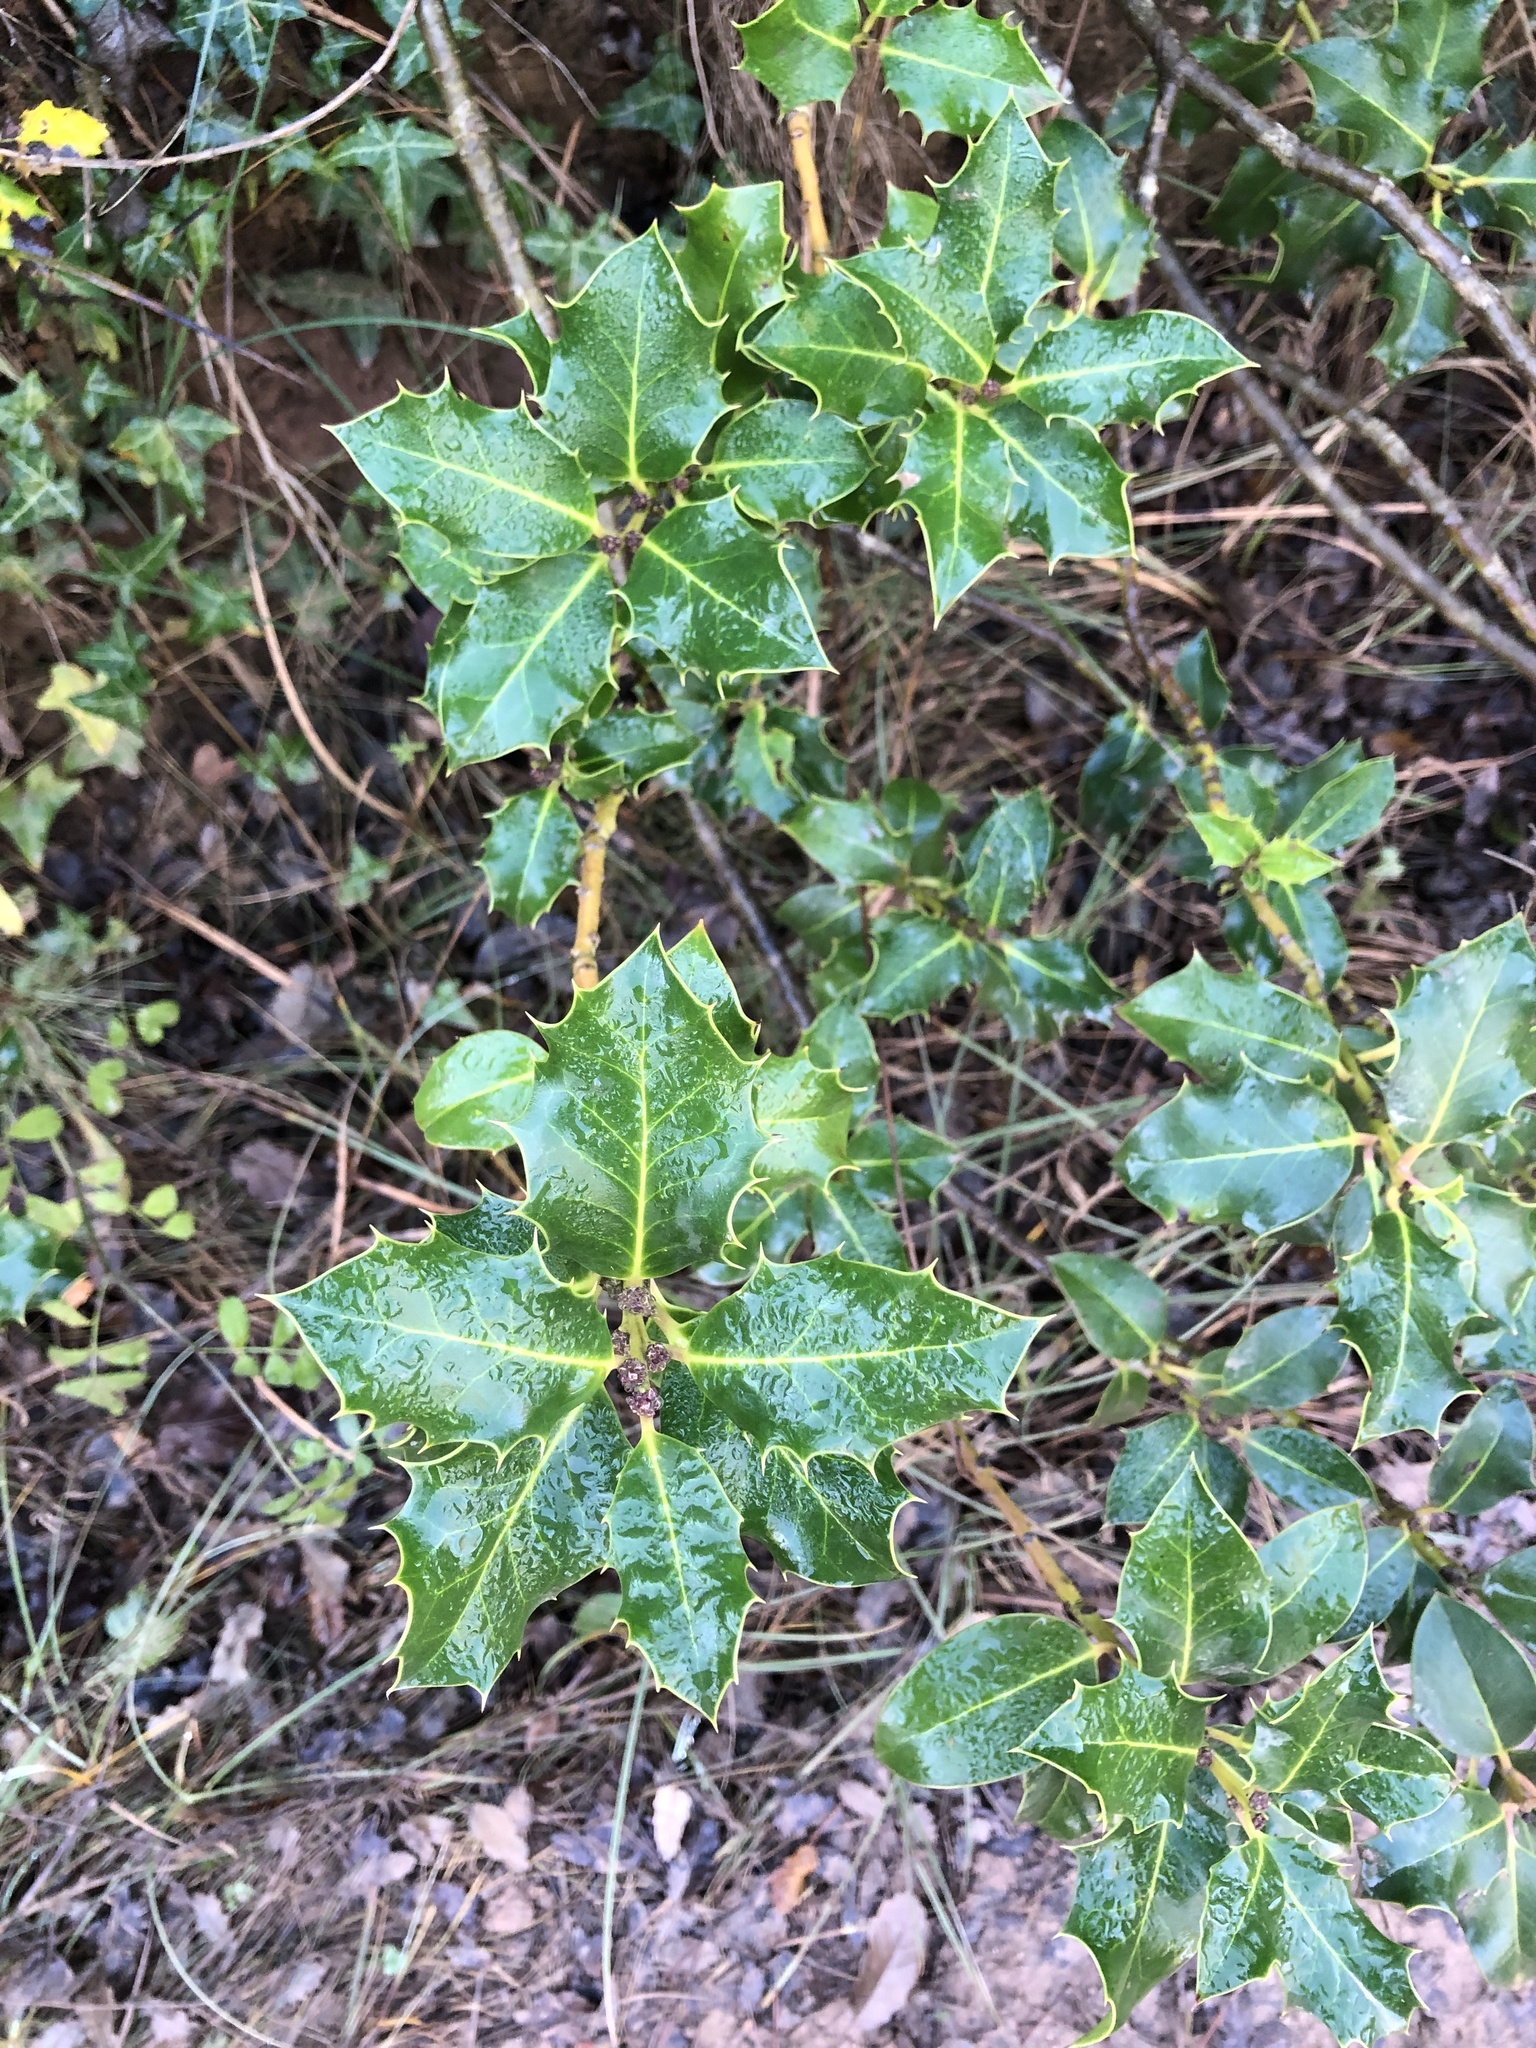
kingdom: Plantae
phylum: Tracheophyta
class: Magnoliopsida
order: Aquifoliales
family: Aquifoliaceae
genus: Ilex
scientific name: Ilex aquifolium
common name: English holly
